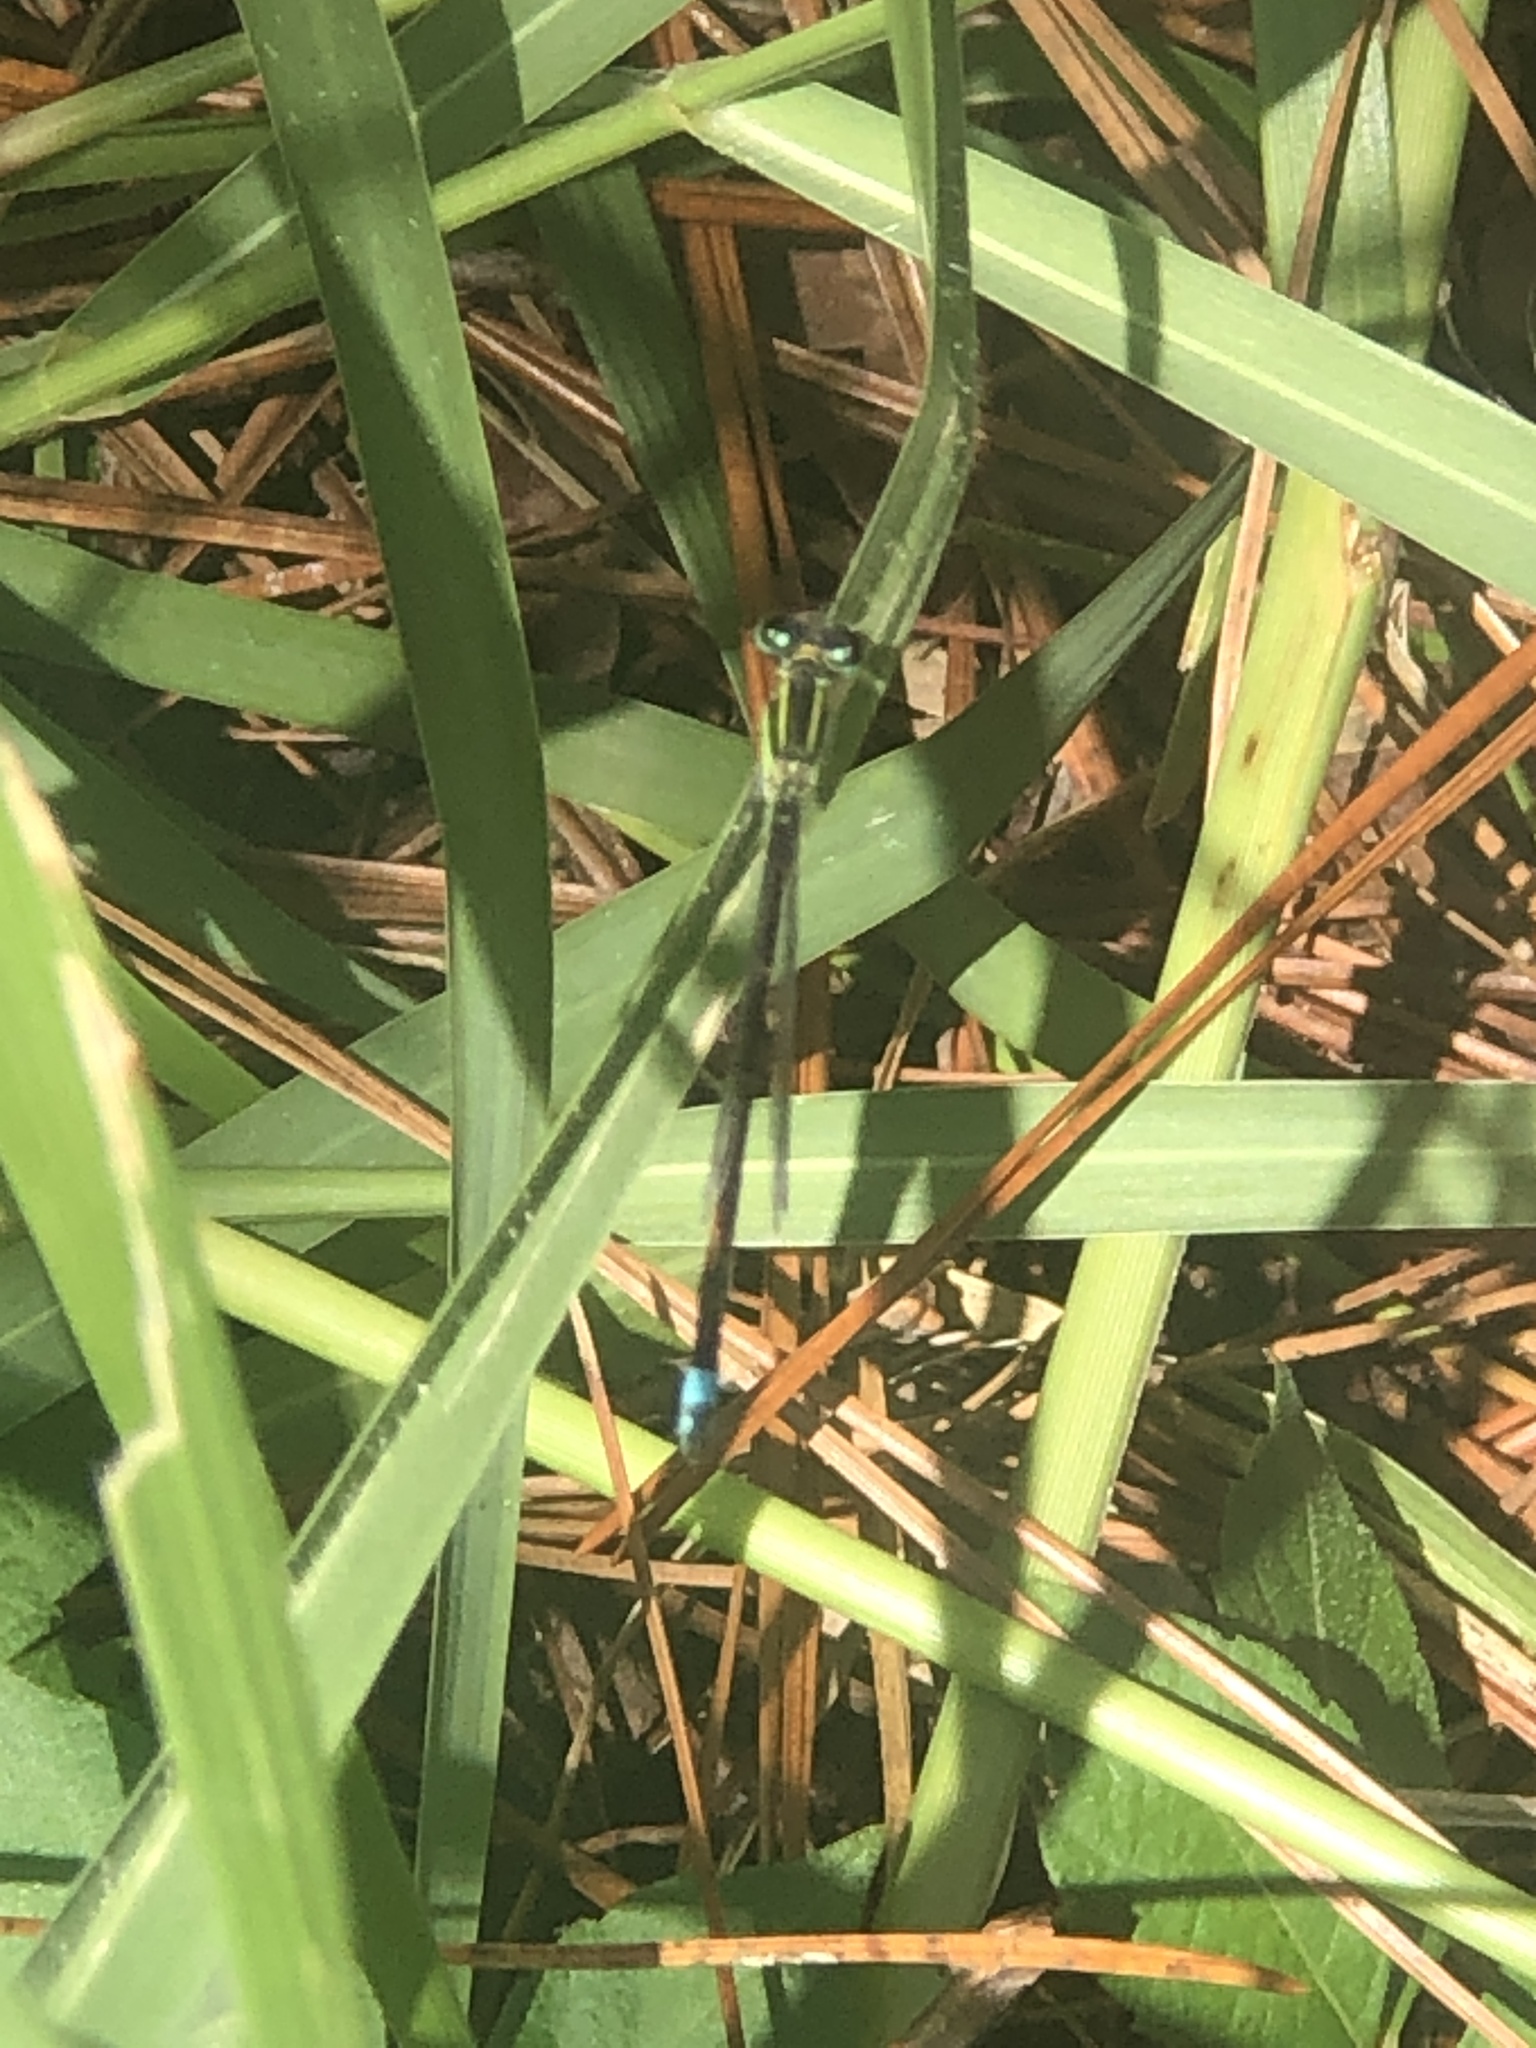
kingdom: Animalia
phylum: Arthropoda
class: Insecta
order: Odonata
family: Coenagrionidae
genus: Ischnura
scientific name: Ischnura ramburii
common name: Rambur's forktail
